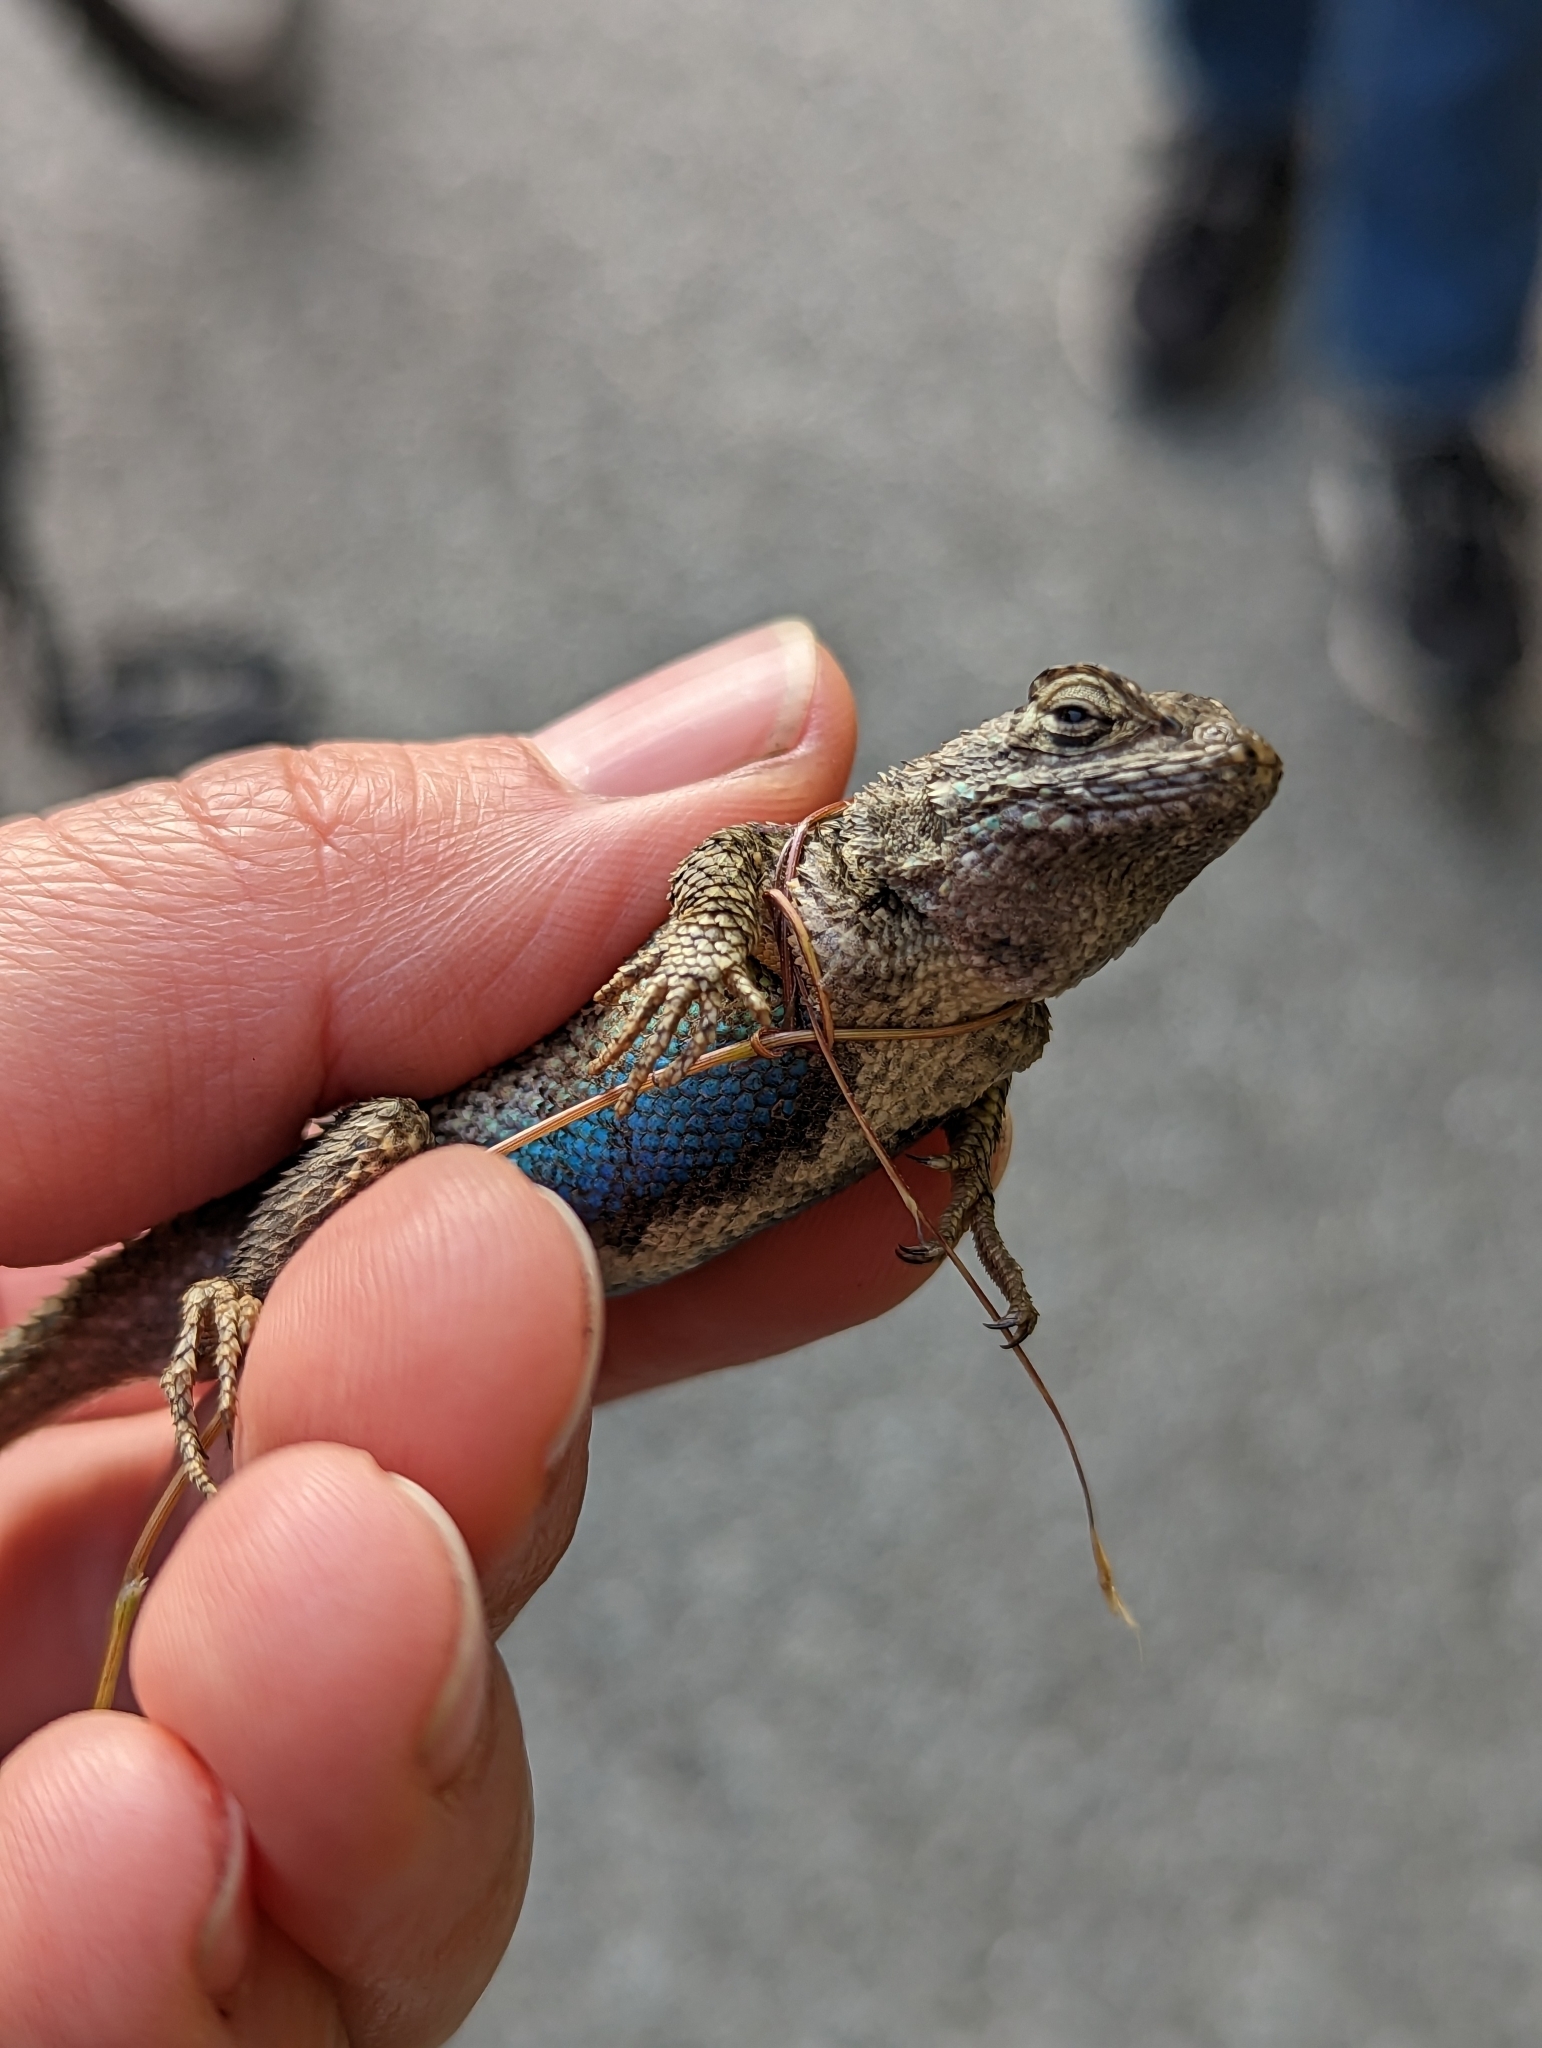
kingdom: Animalia
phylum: Chordata
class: Squamata
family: Phrynosomatidae
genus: Sceloporus
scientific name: Sceloporus occidentalis
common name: Western fence lizard
